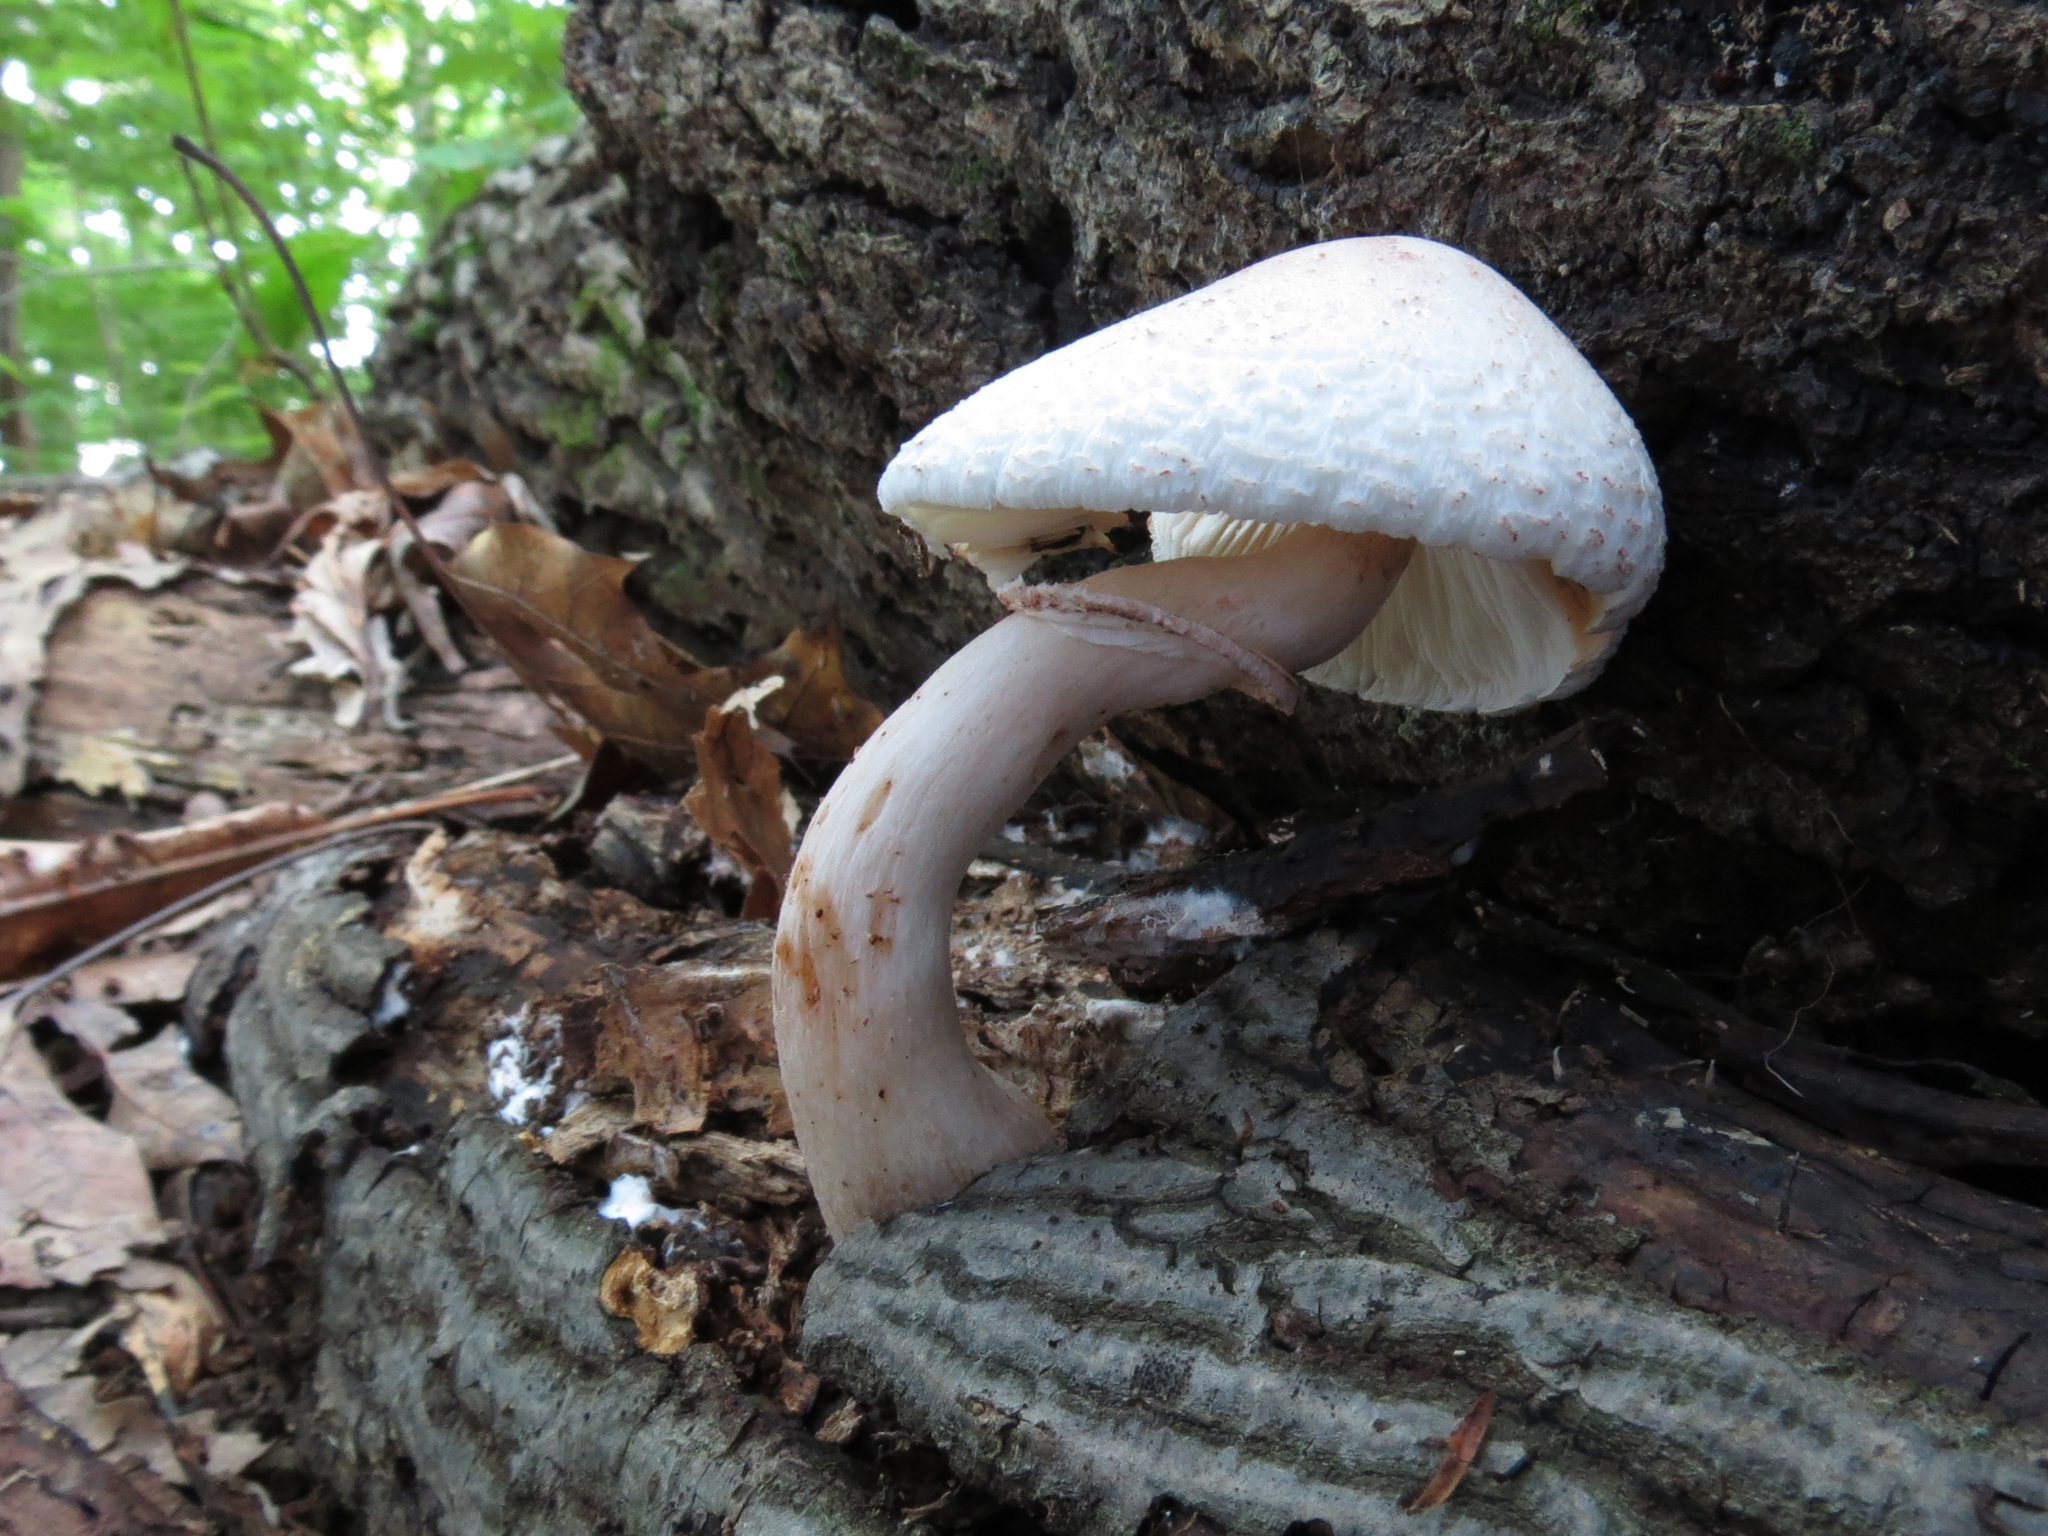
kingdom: Fungi
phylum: Basidiomycota
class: Agaricomycetes
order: Agaricales
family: Agaricaceae
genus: Leucoagaricus
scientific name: Leucoagaricus americanus
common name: Reddening lepiota
